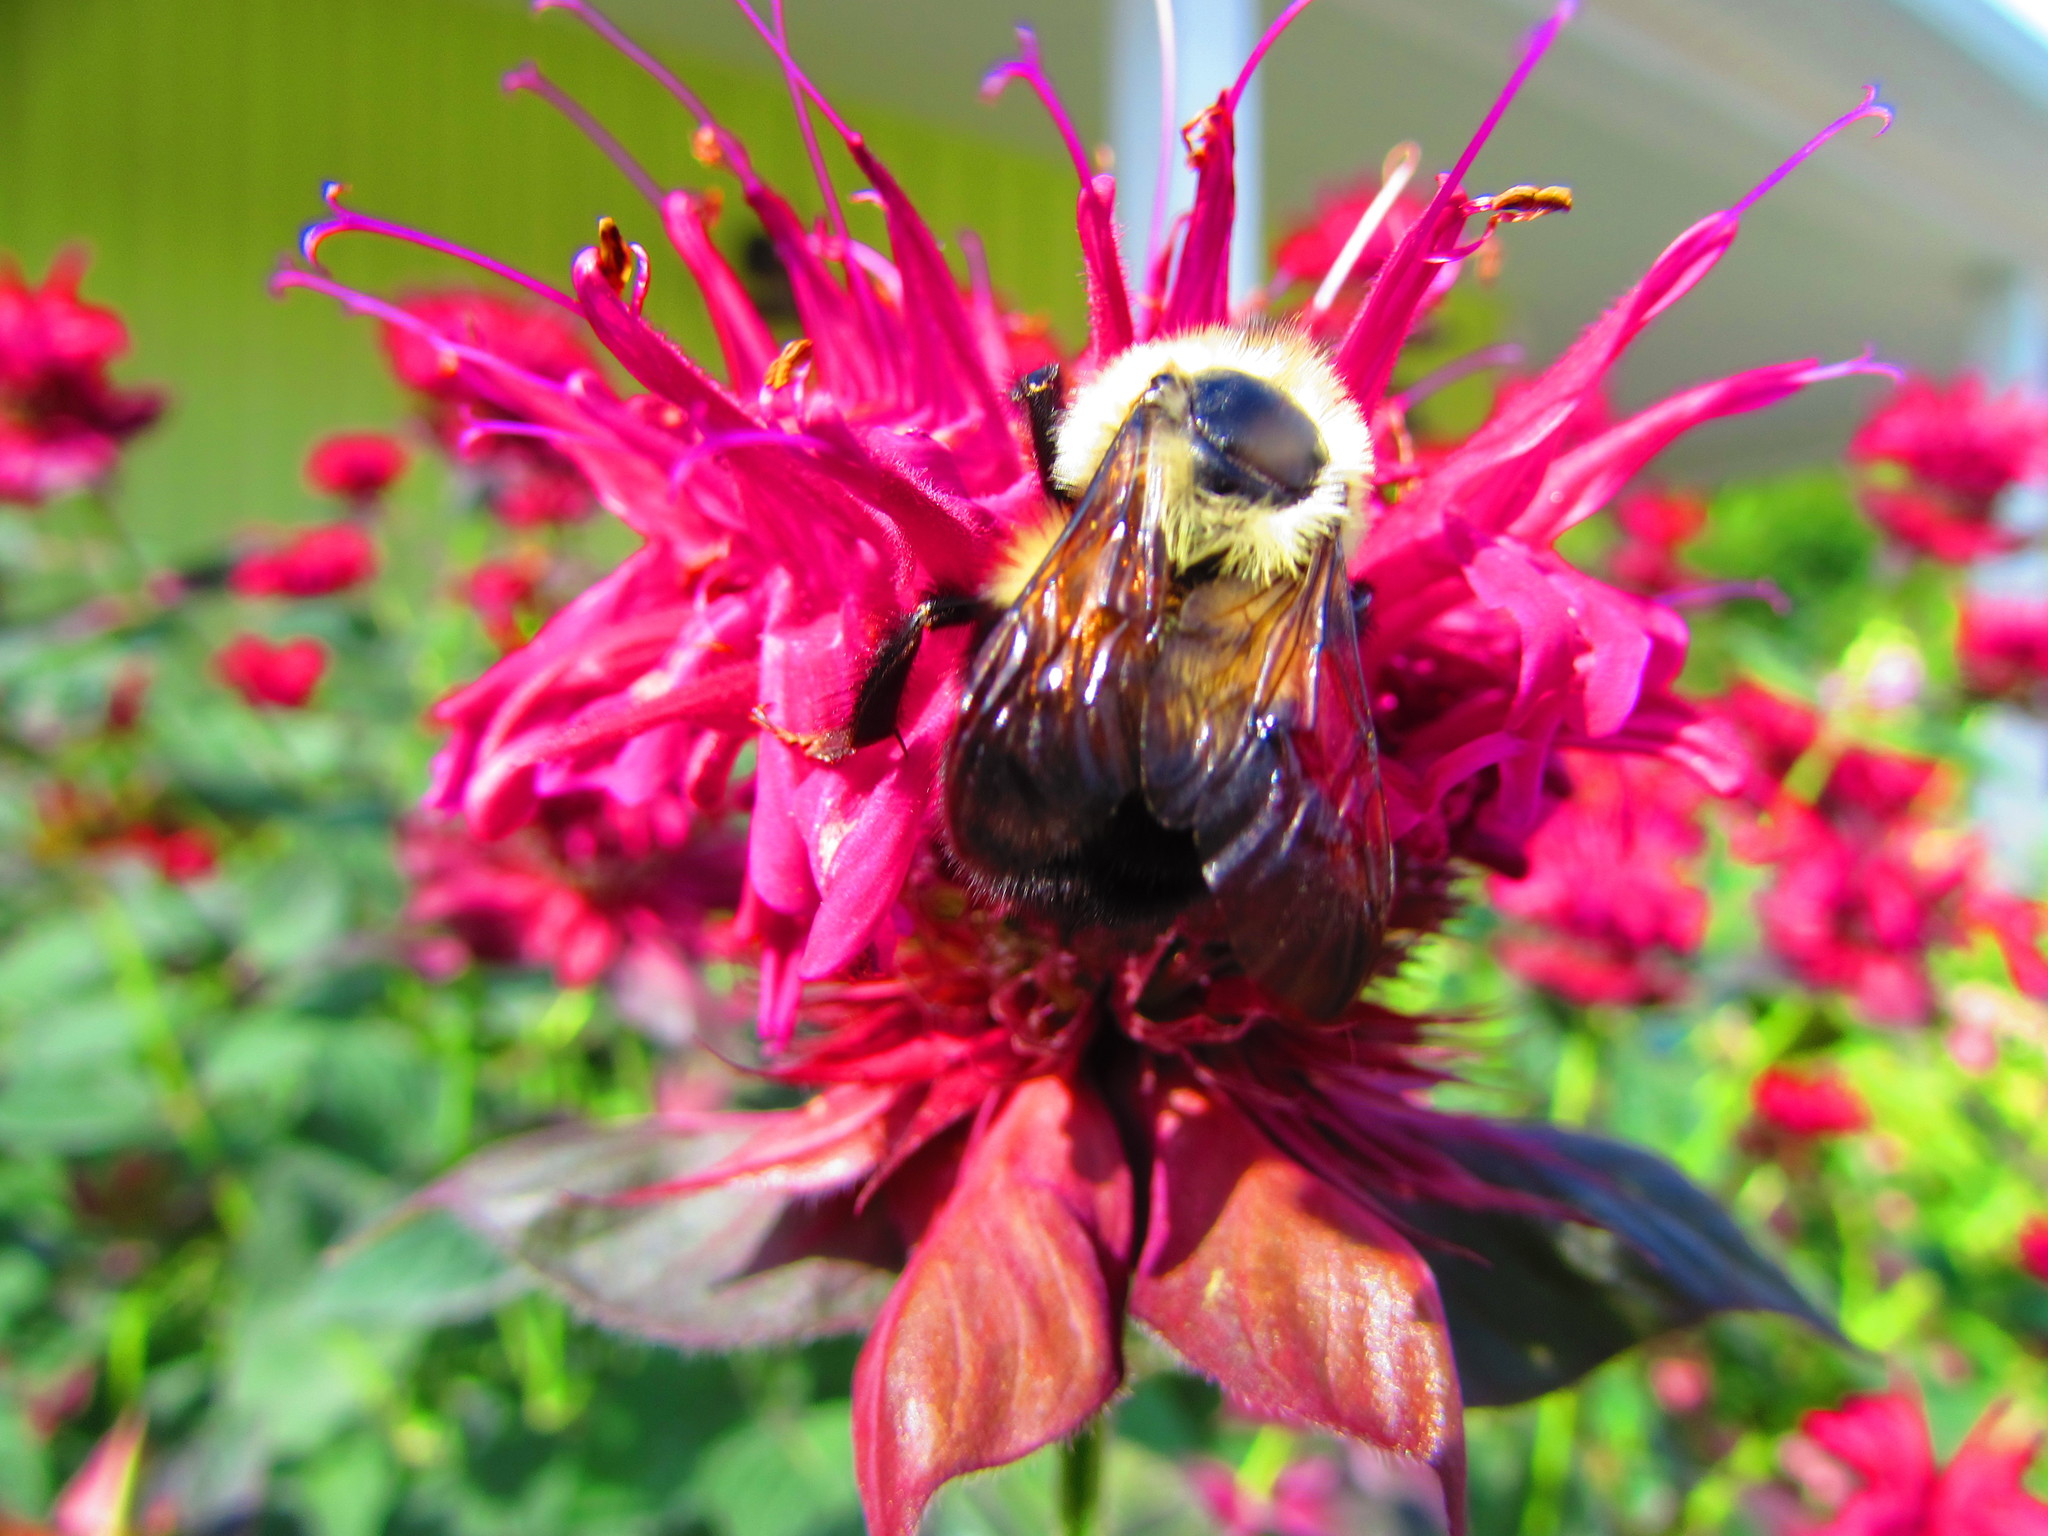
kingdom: Animalia
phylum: Arthropoda
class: Insecta
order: Hymenoptera
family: Apidae
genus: Bombus
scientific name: Bombus bimaculatus
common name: Two-spotted bumble bee
